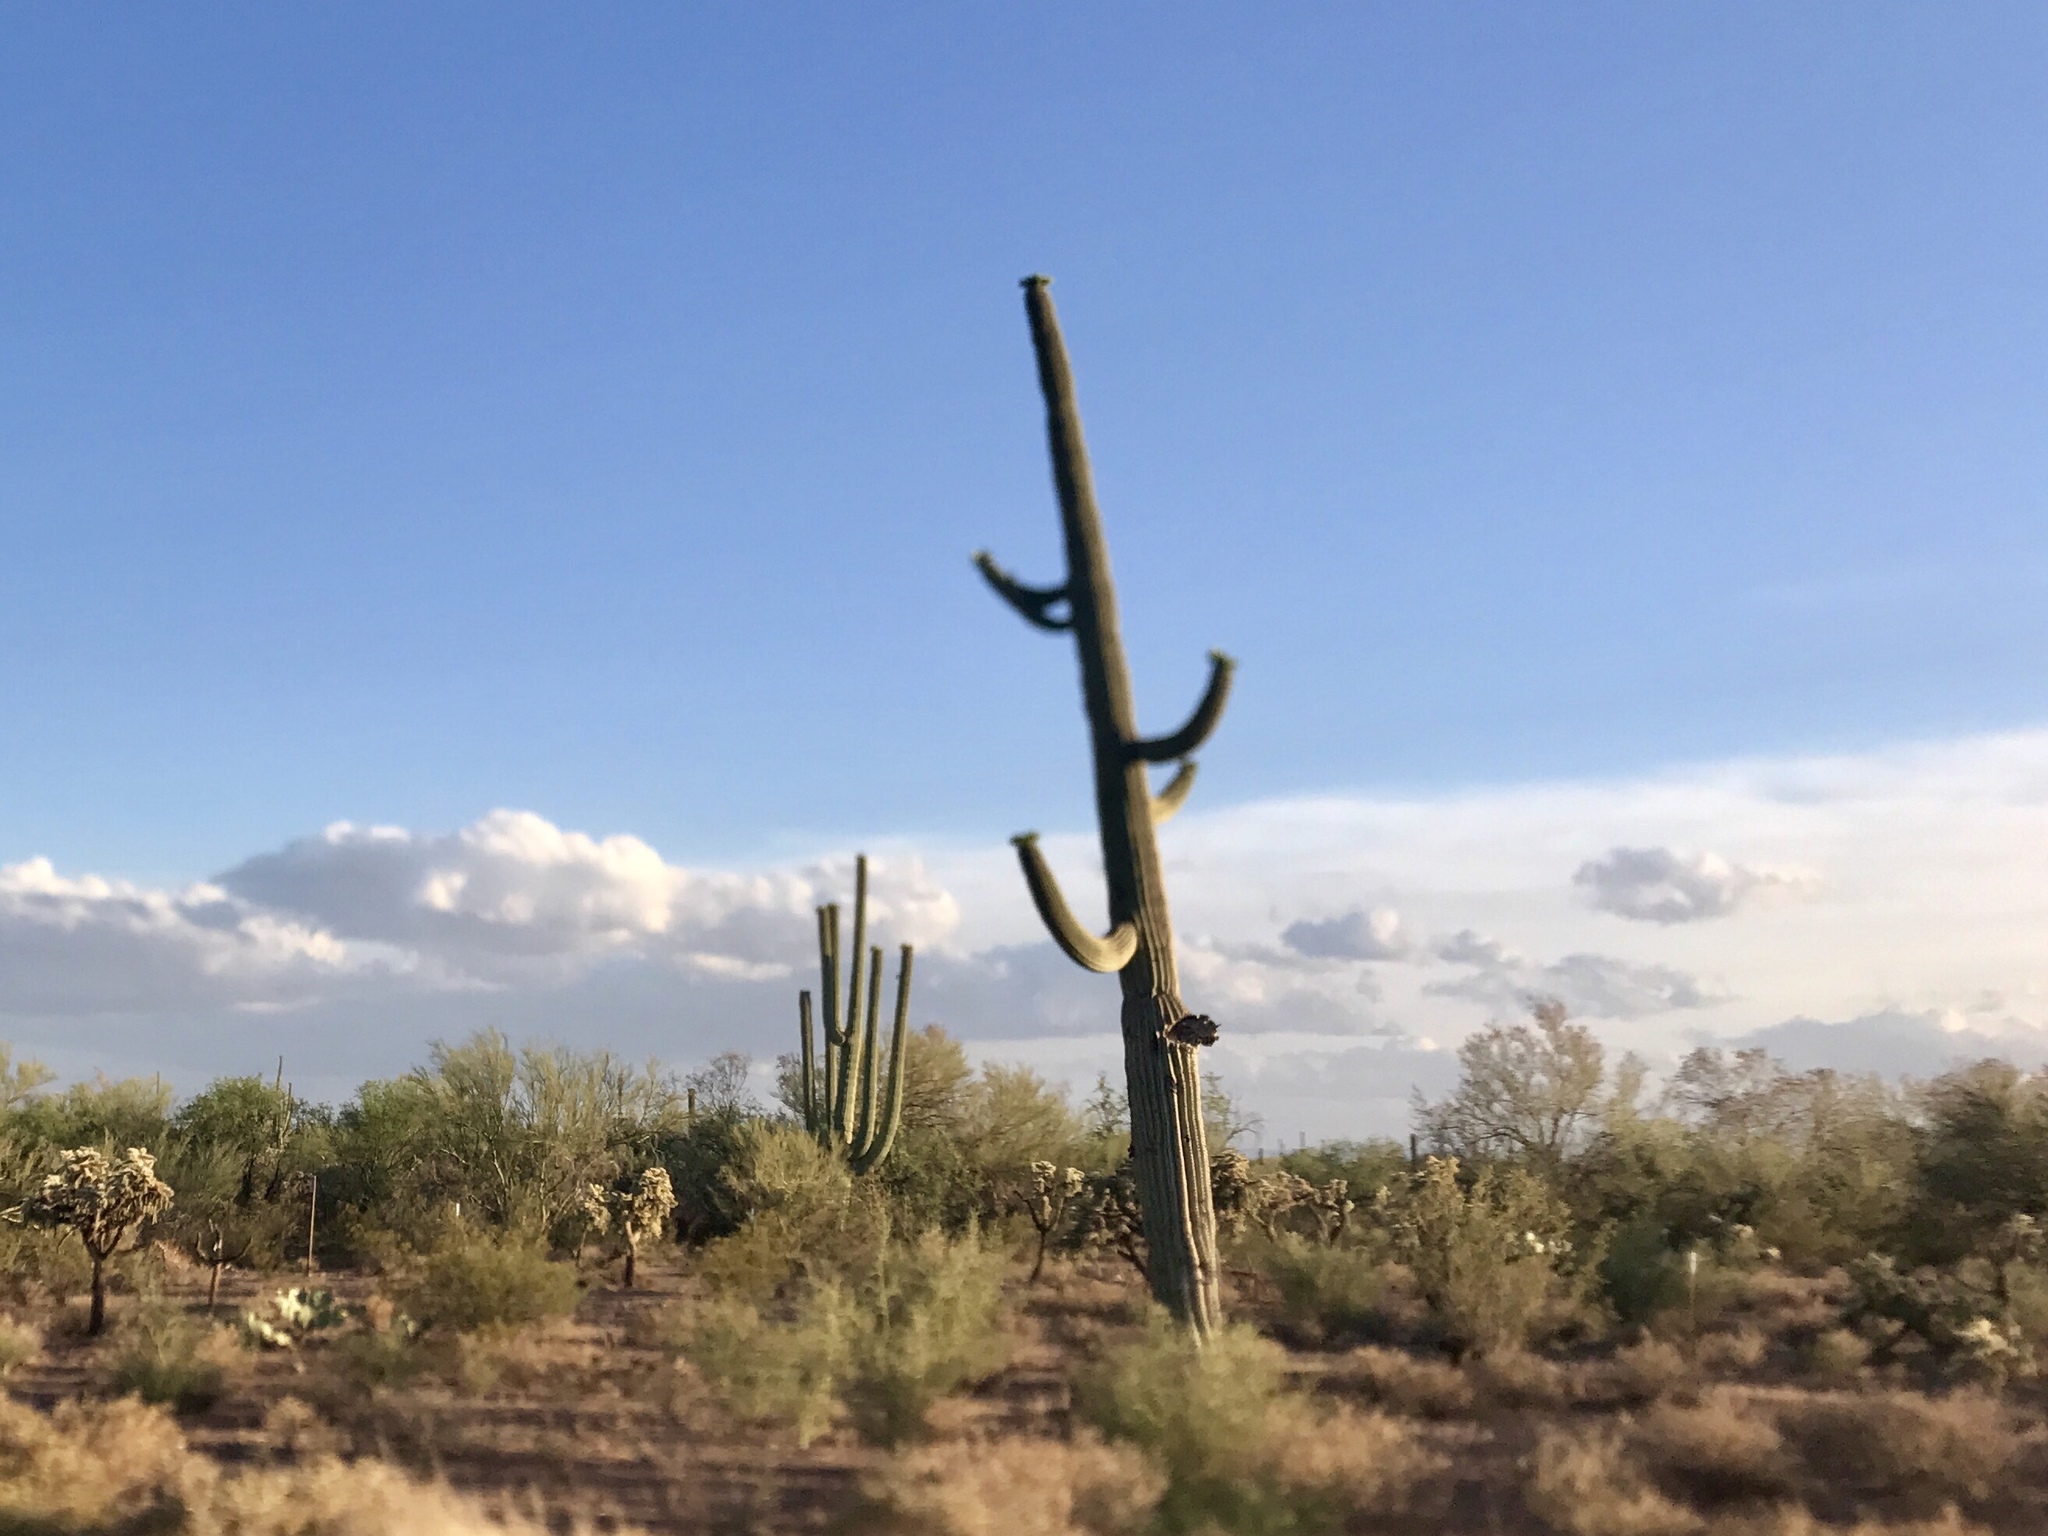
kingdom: Plantae
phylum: Tracheophyta
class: Magnoliopsida
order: Caryophyllales
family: Cactaceae
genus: Carnegiea
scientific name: Carnegiea gigantea
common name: Saguaro
